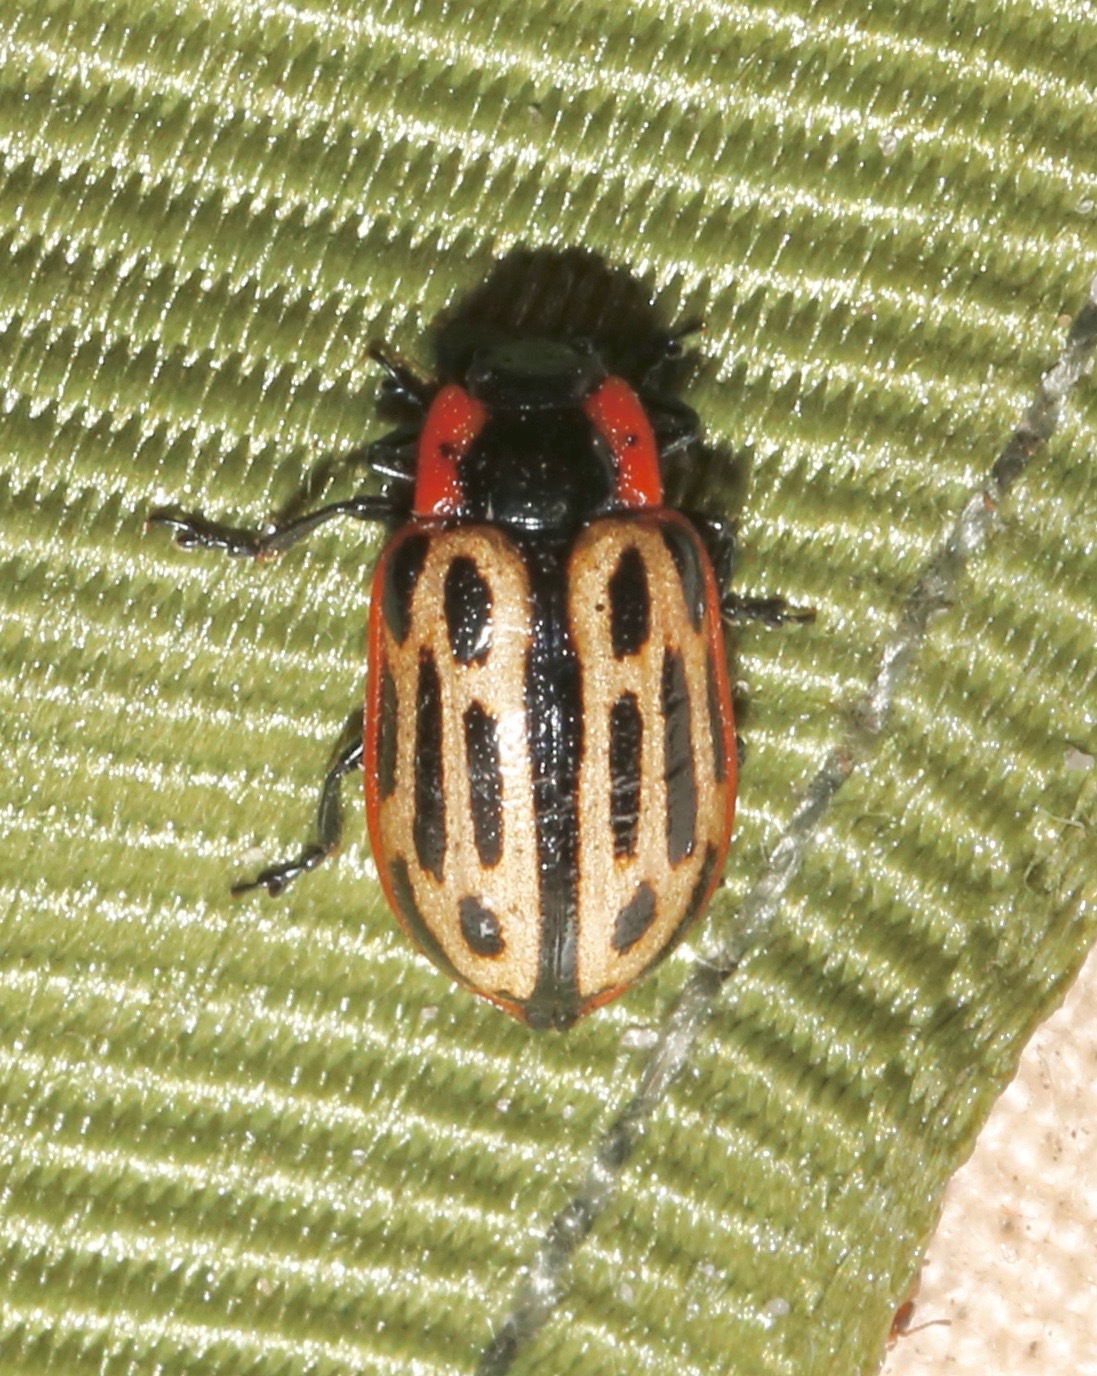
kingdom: Animalia
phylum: Arthropoda
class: Insecta
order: Coleoptera
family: Chrysomelidae
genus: Aethiopocassis
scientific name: Aethiopocassis scripta
